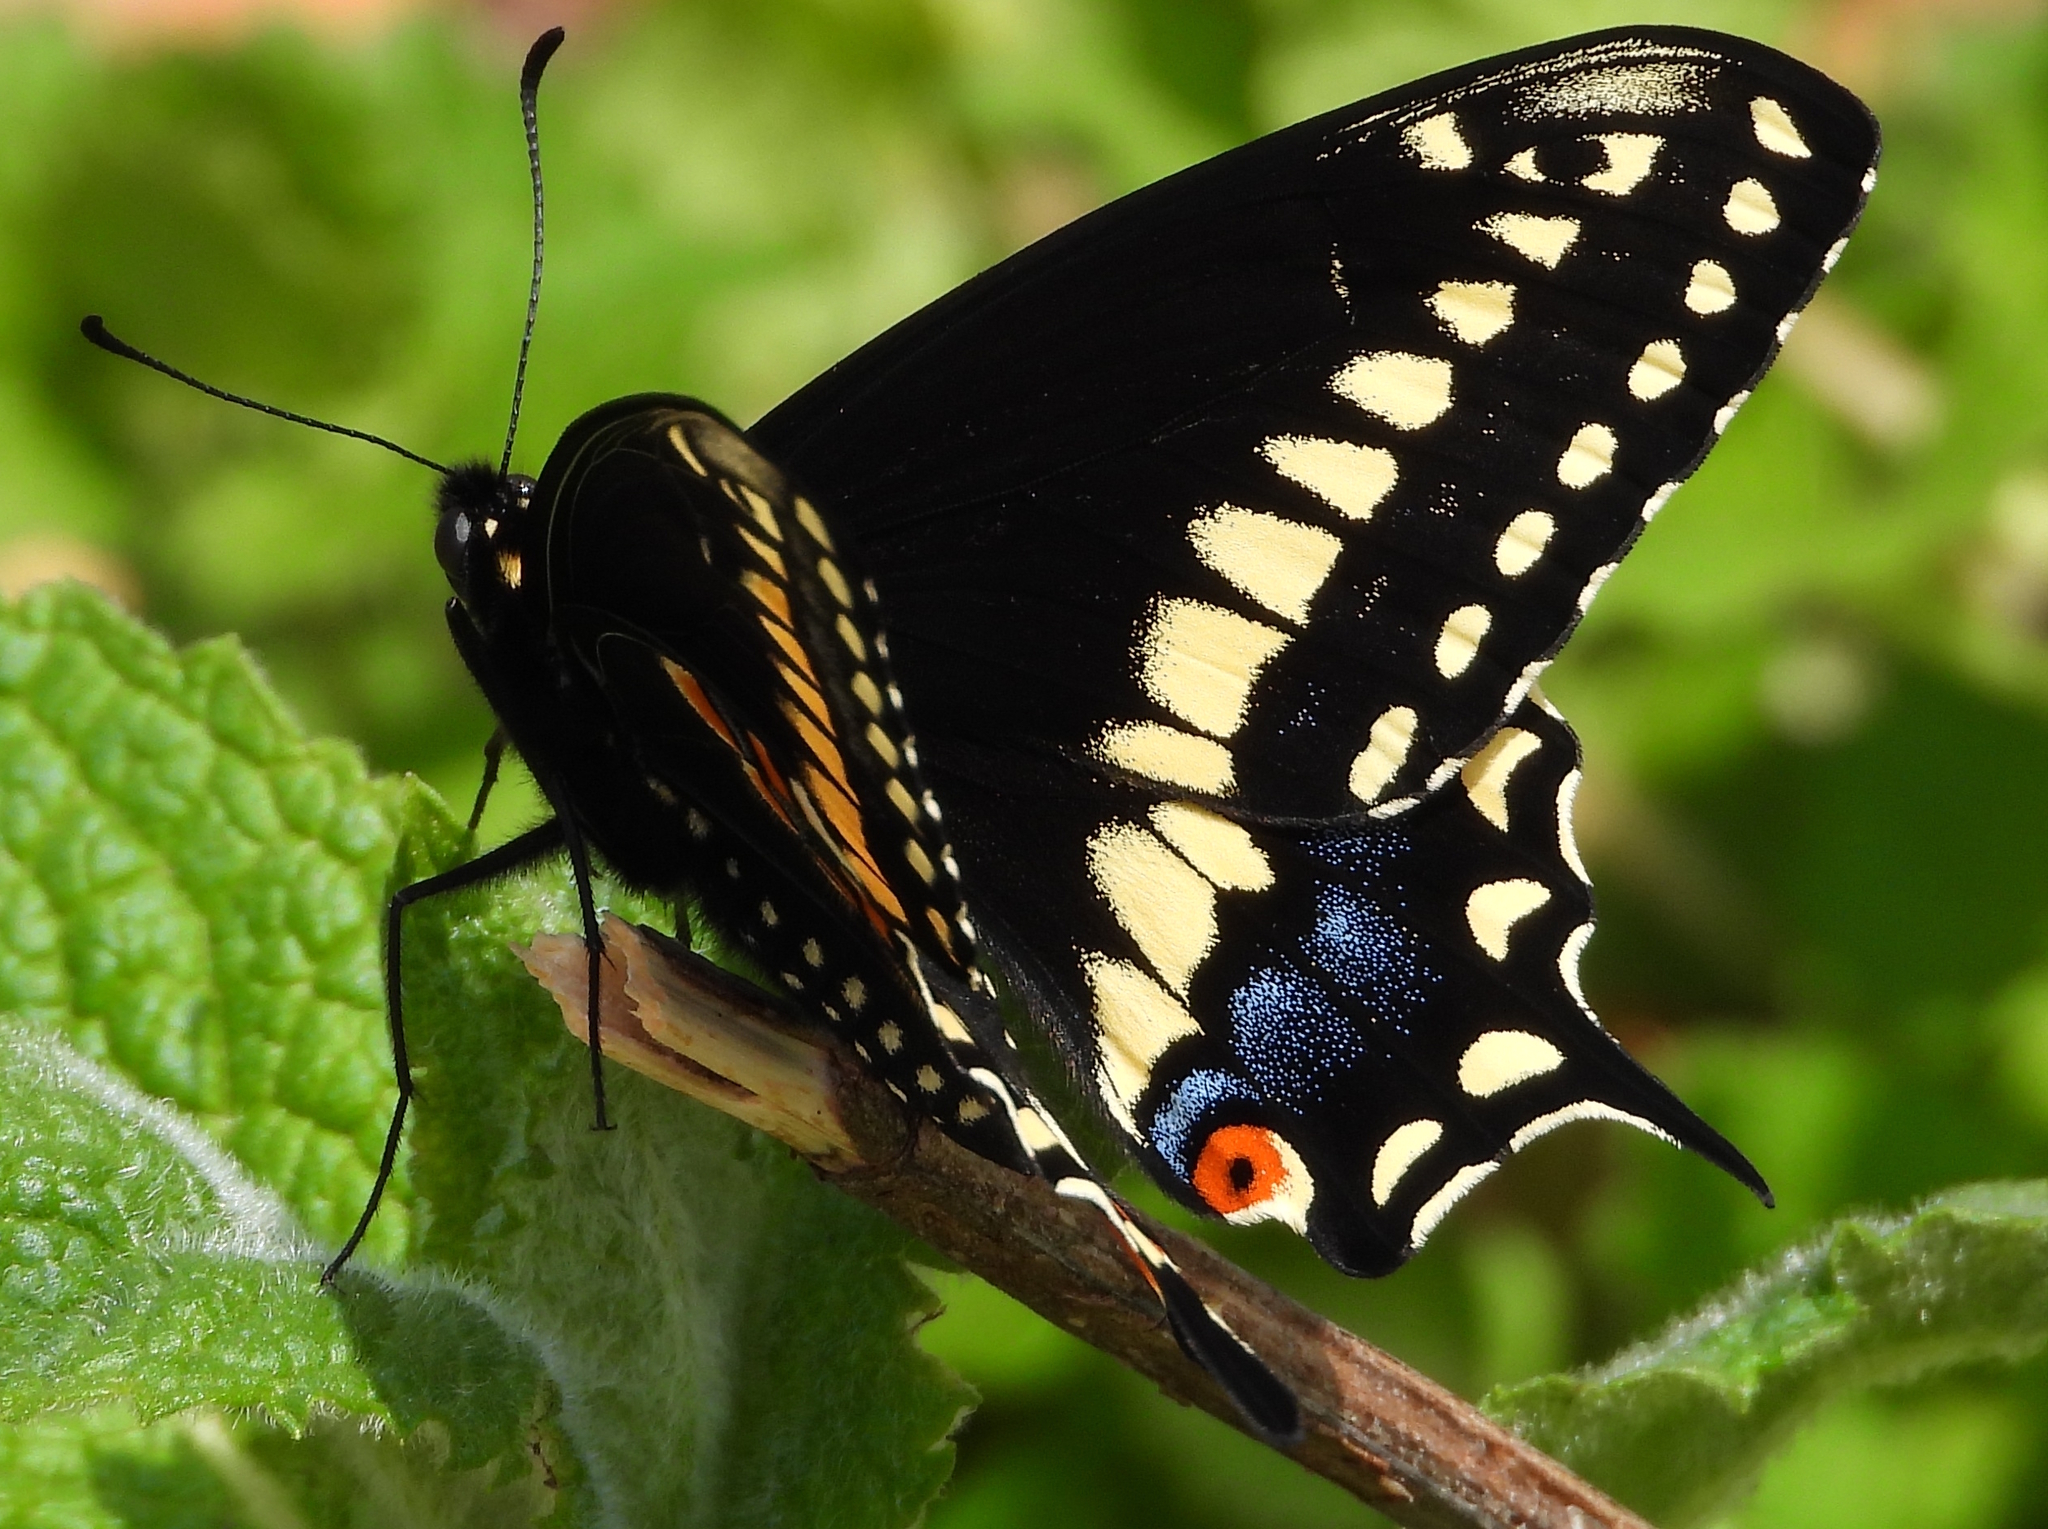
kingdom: Animalia
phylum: Arthropoda
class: Insecta
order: Lepidoptera
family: Papilionidae
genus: Papilio
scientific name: Papilio polyxenes
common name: Black swallowtail
